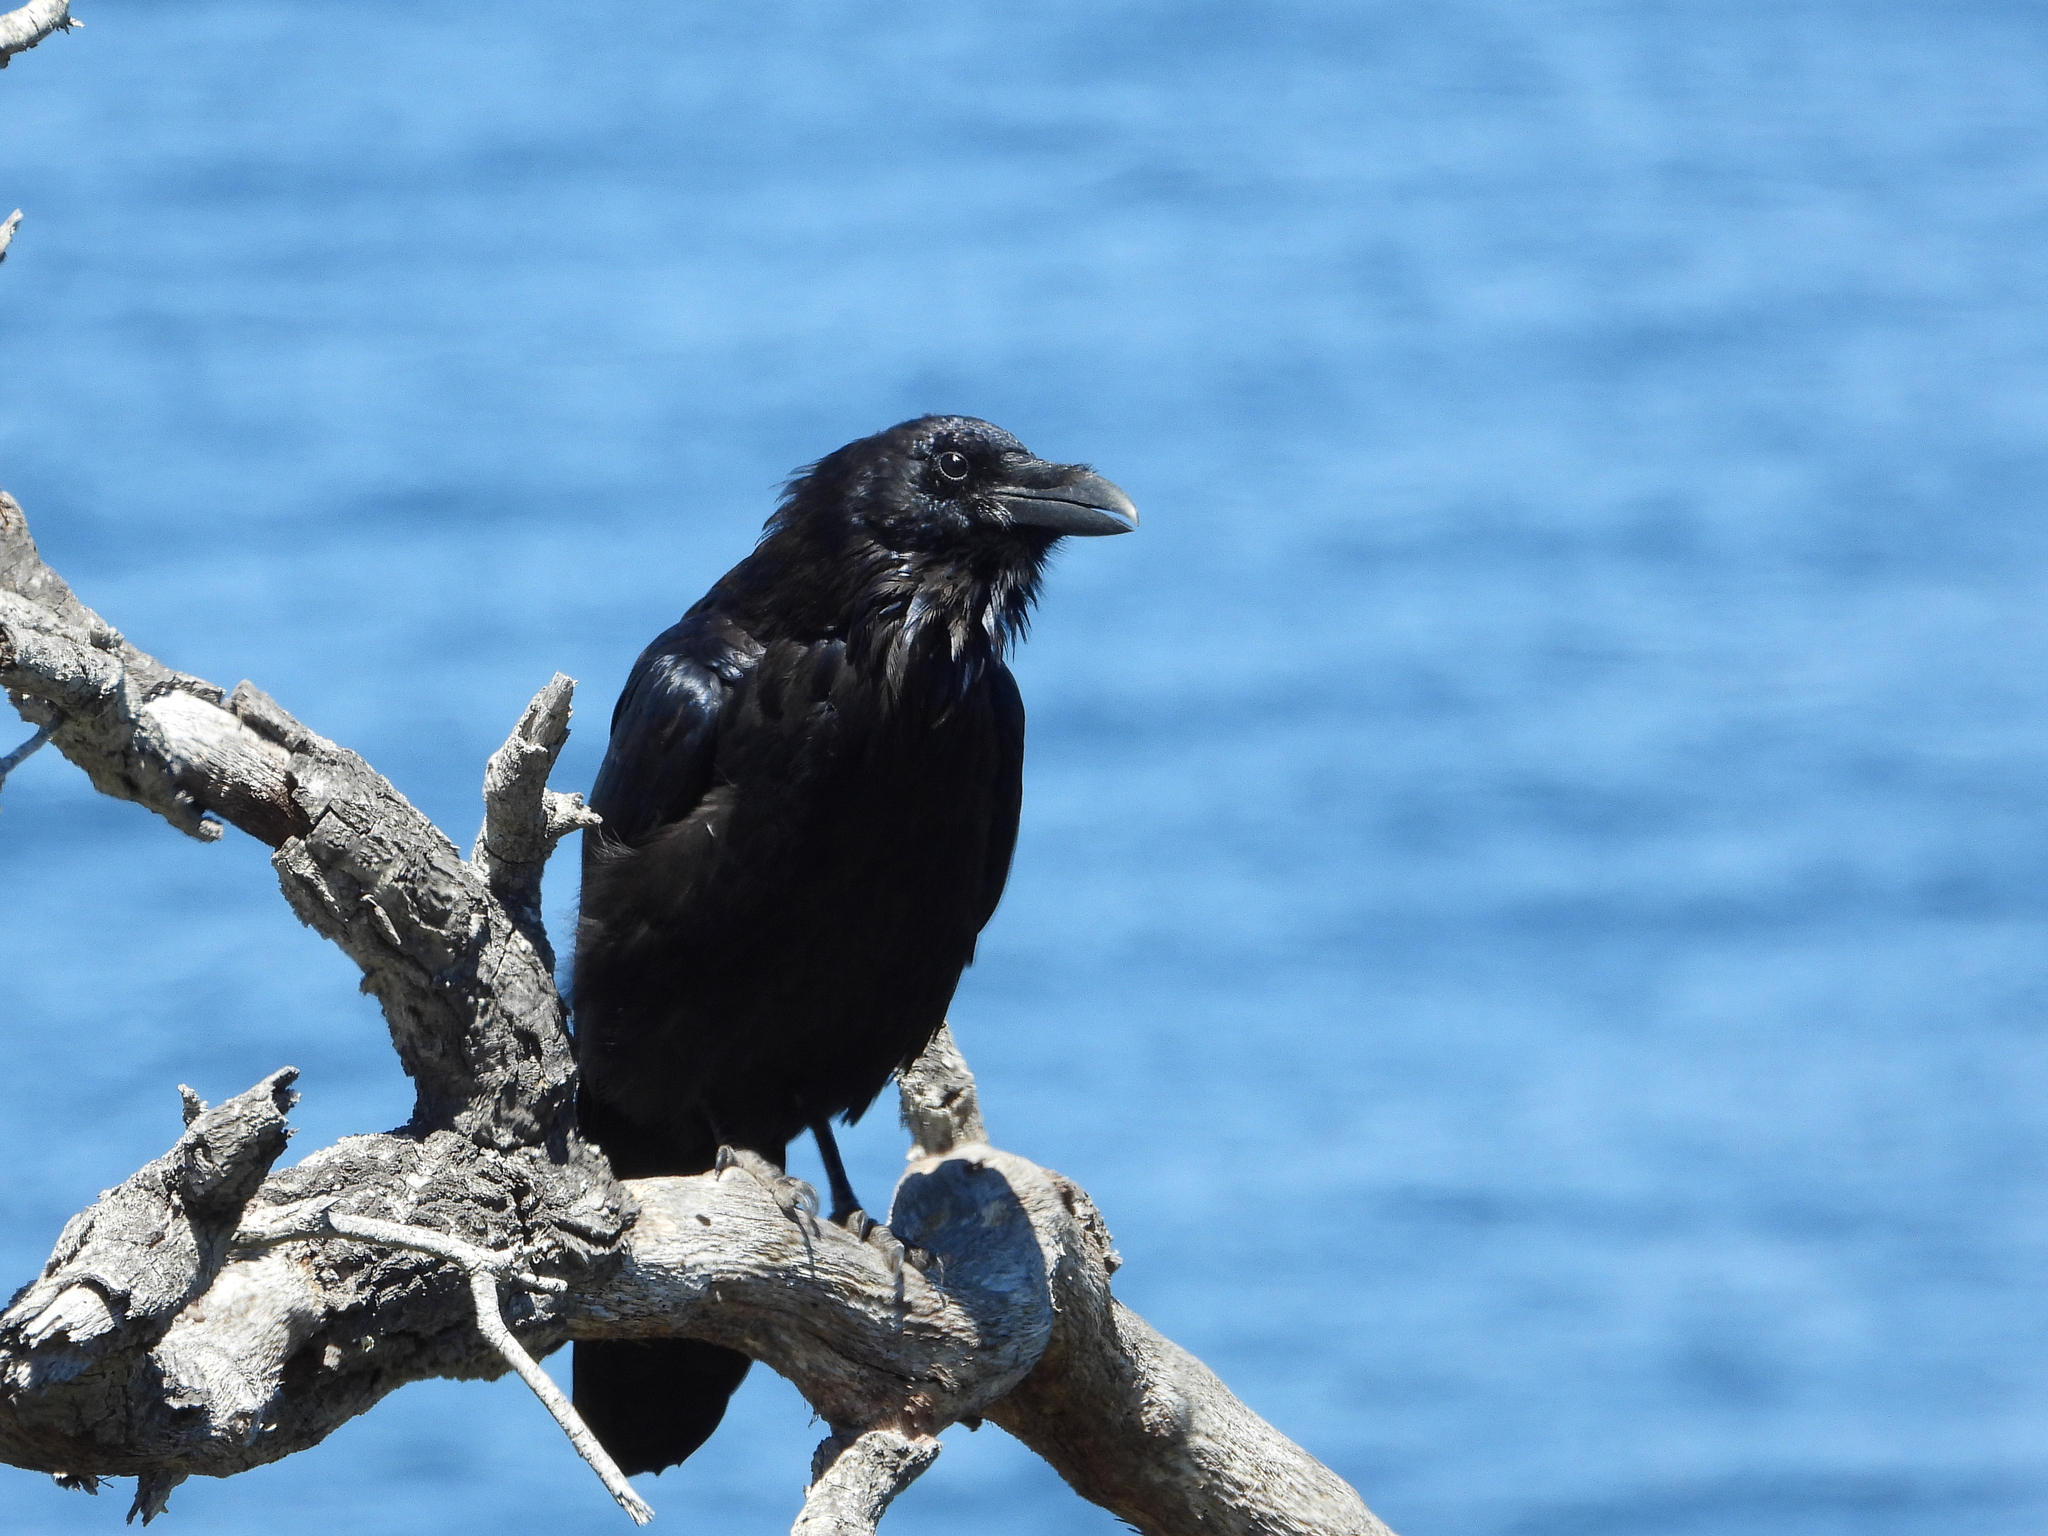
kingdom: Animalia
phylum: Chordata
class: Aves
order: Passeriformes
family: Corvidae
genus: Corvus
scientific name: Corvus corax
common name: Common raven
